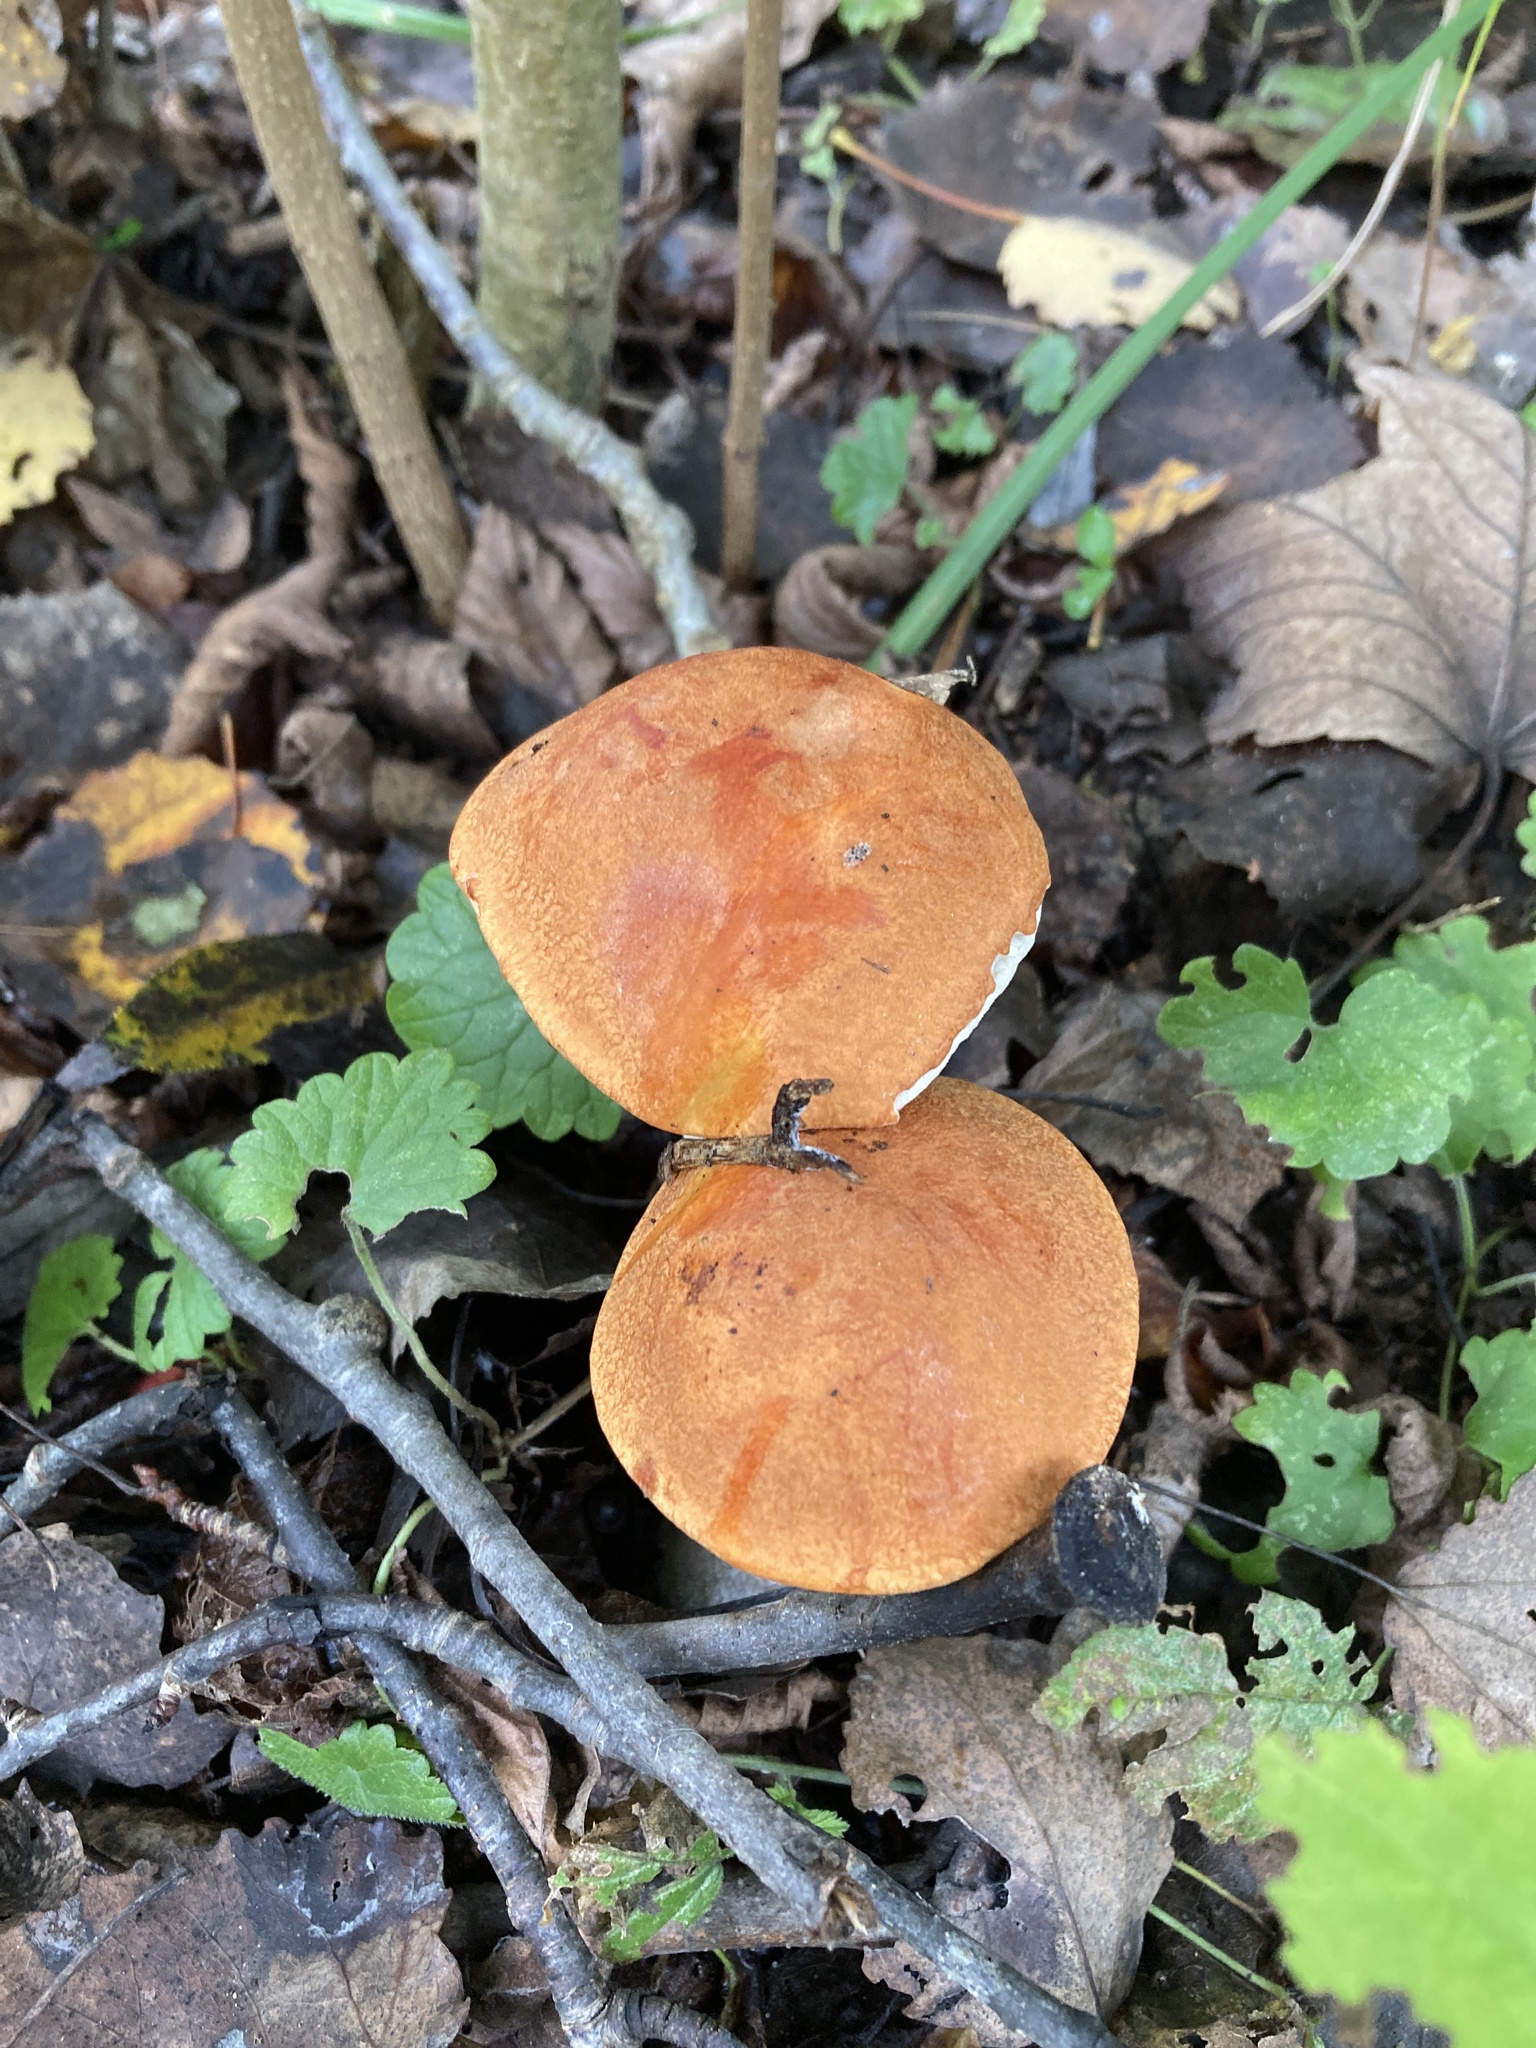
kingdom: Fungi
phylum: Basidiomycota
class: Agaricomycetes
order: Boletales
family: Boletaceae
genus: Leccinum
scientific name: Leccinum albostipitatum
